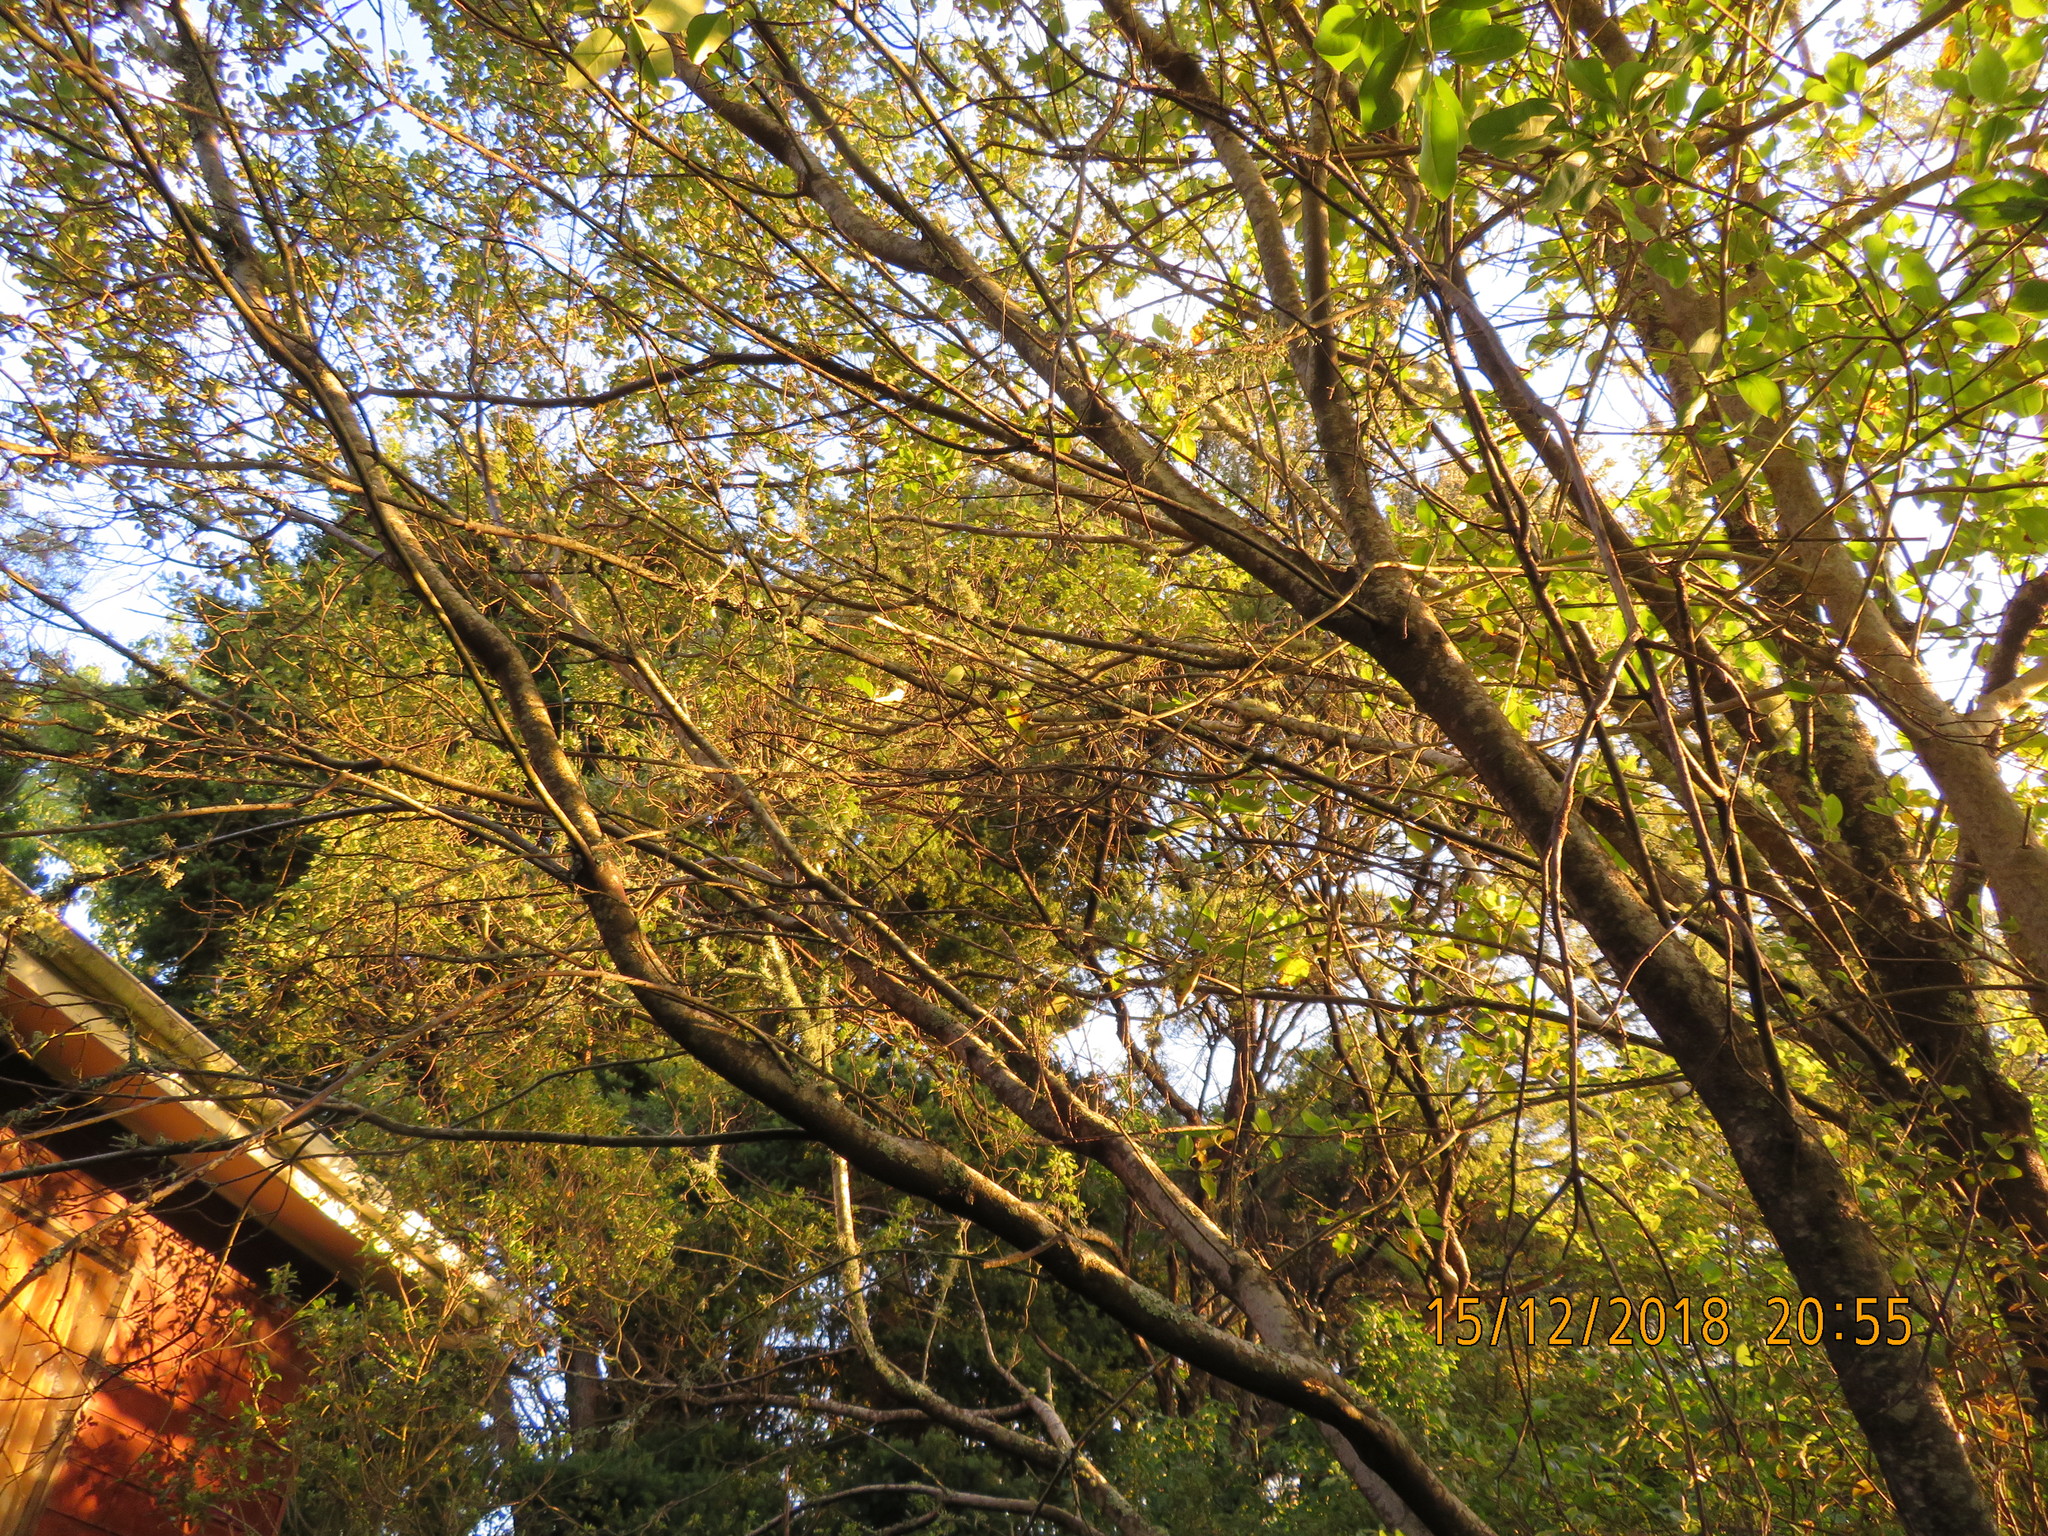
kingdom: Plantae
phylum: Tracheophyta
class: Magnoliopsida
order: Gentianales
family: Rubiaceae
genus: Coprosma
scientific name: Coprosma robusta
